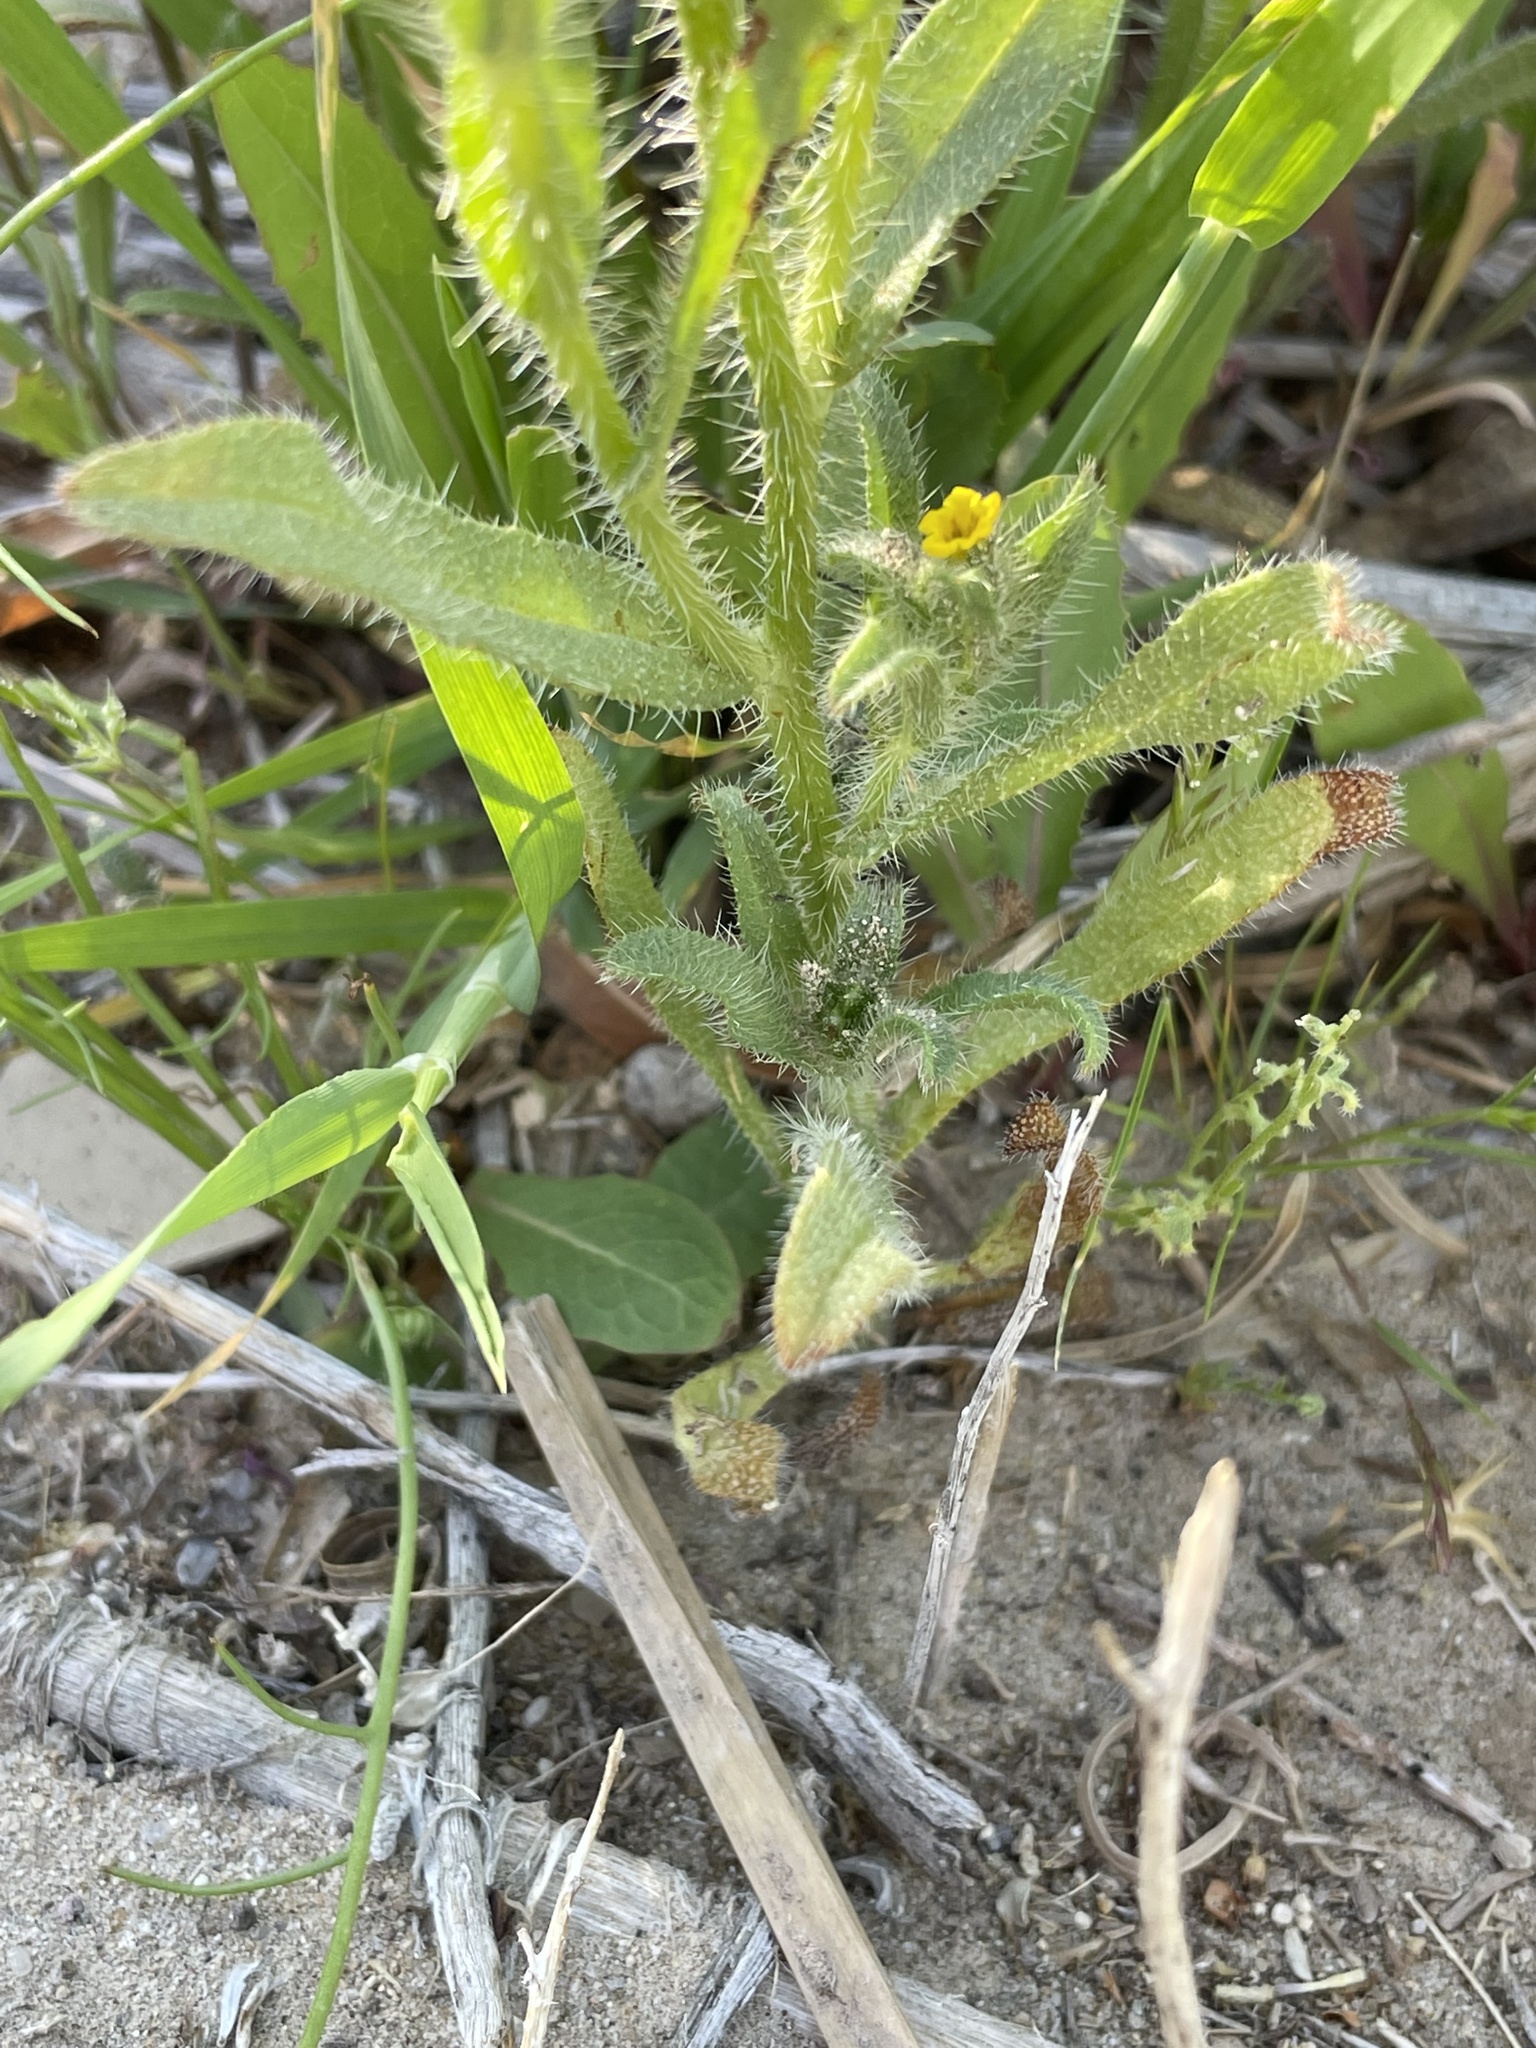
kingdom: Plantae
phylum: Tracheophyta
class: Magnoliopsida
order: Boraginales
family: Boraginaceae
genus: Amsinckia
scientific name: Amsinckia tessellata
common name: Tessellate fiddleneck
